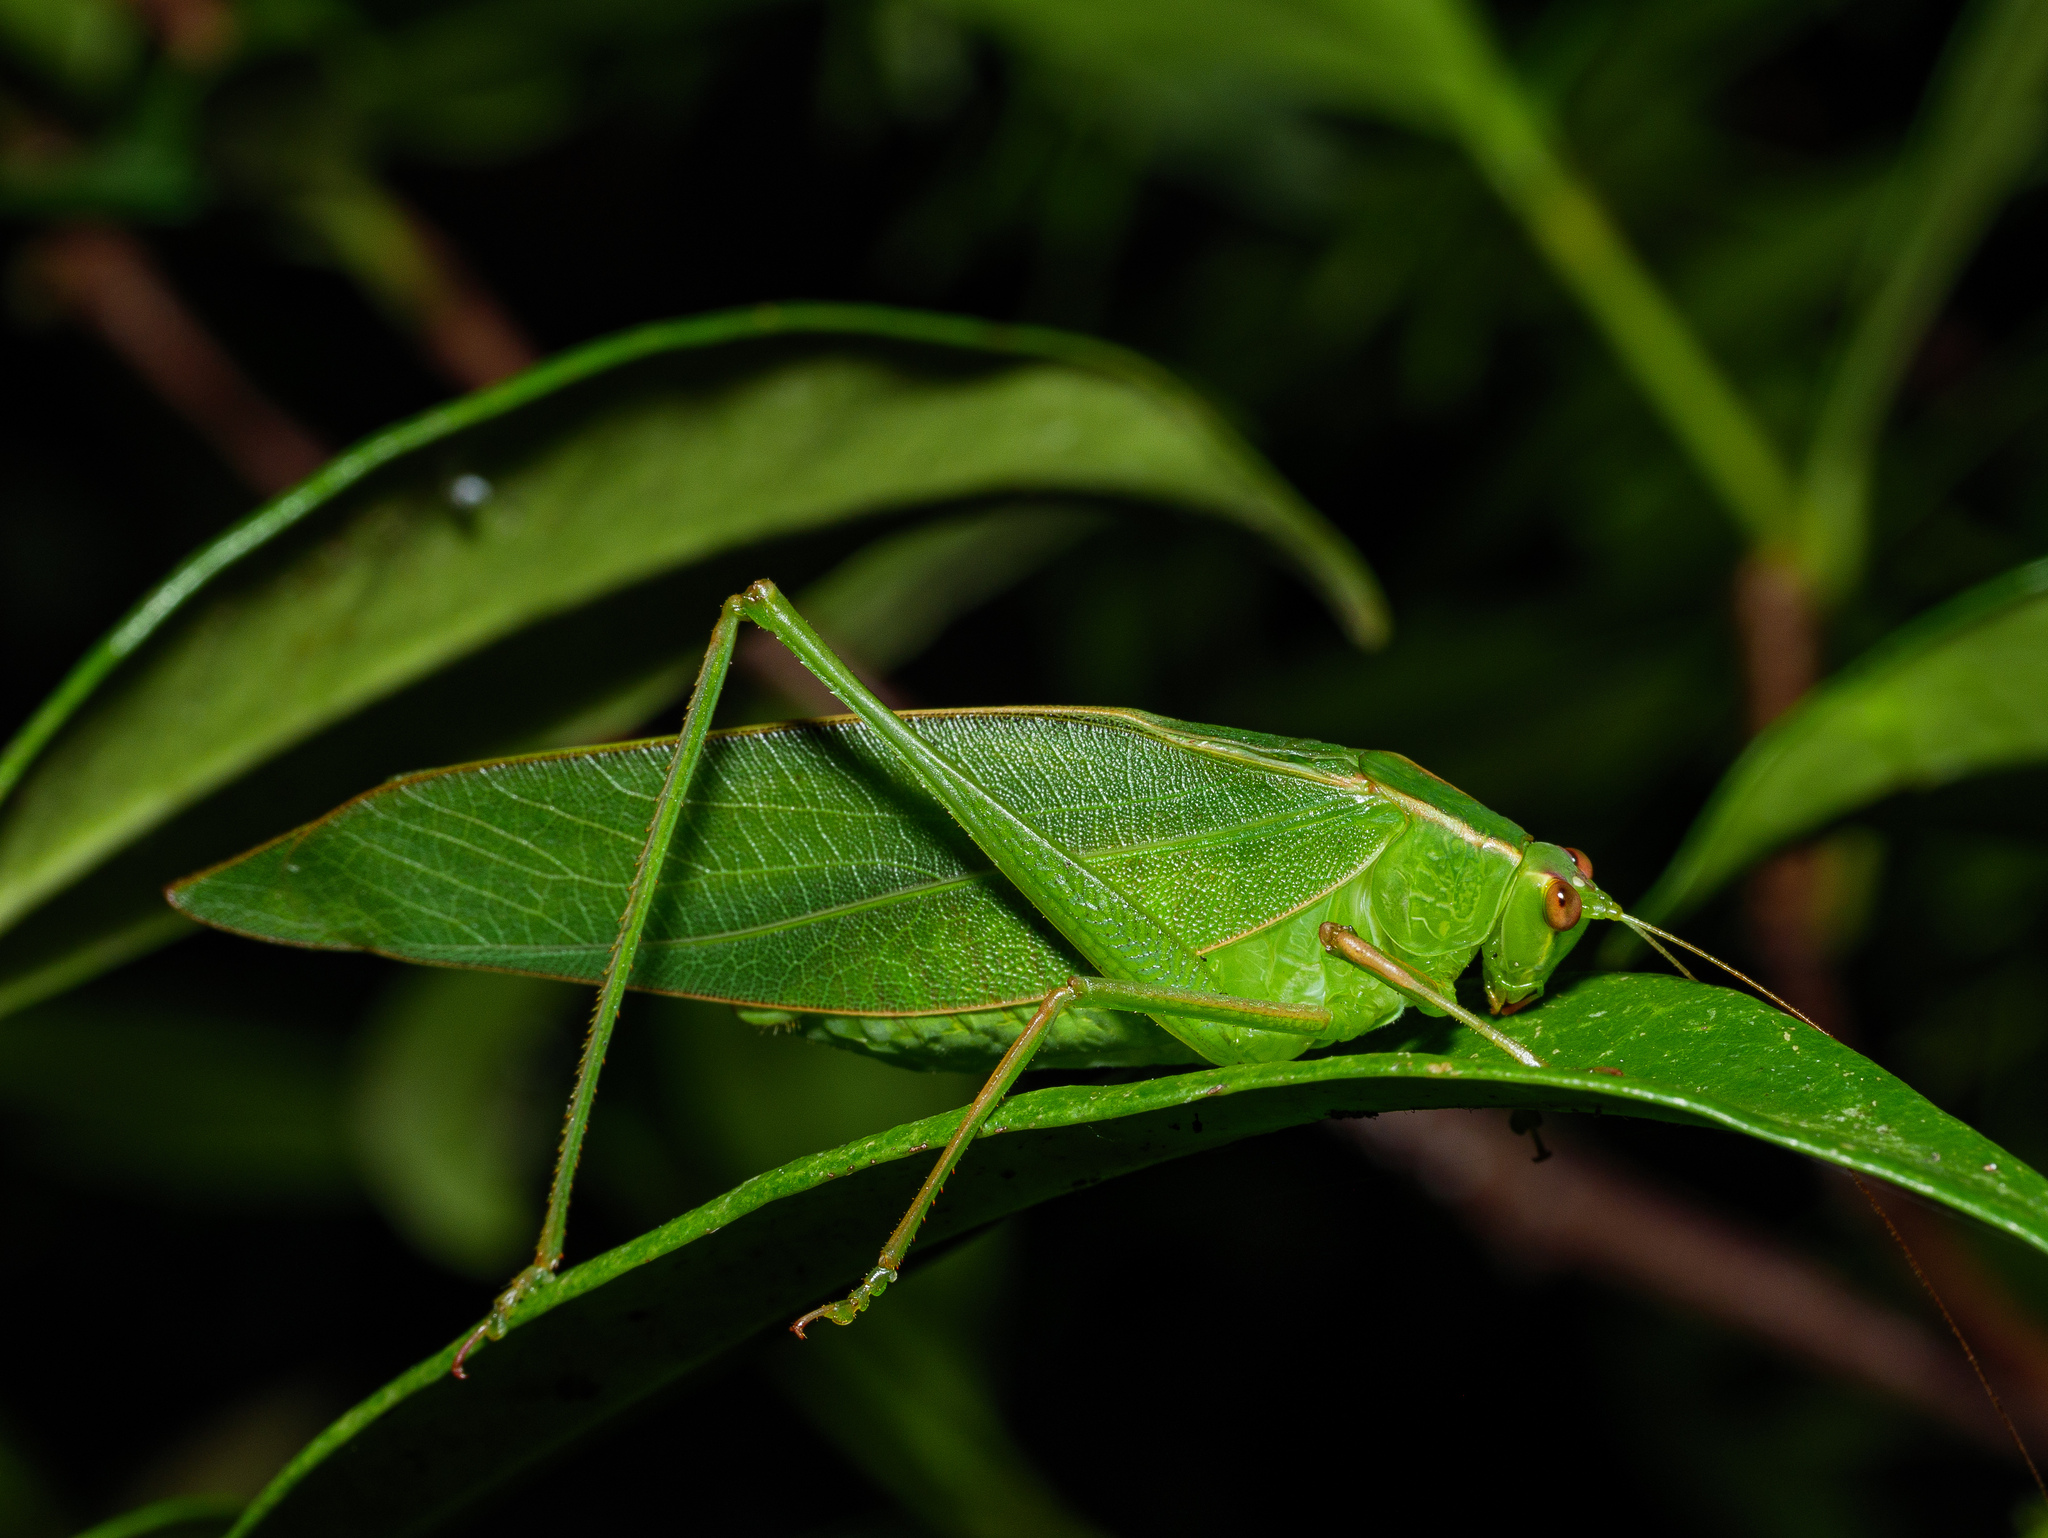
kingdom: Animalia
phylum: Arthropoda
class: Insecta
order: Orthoptera
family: Tettigoniidae
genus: Caedicia
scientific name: Caedicia simplex
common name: Common garden katydid
